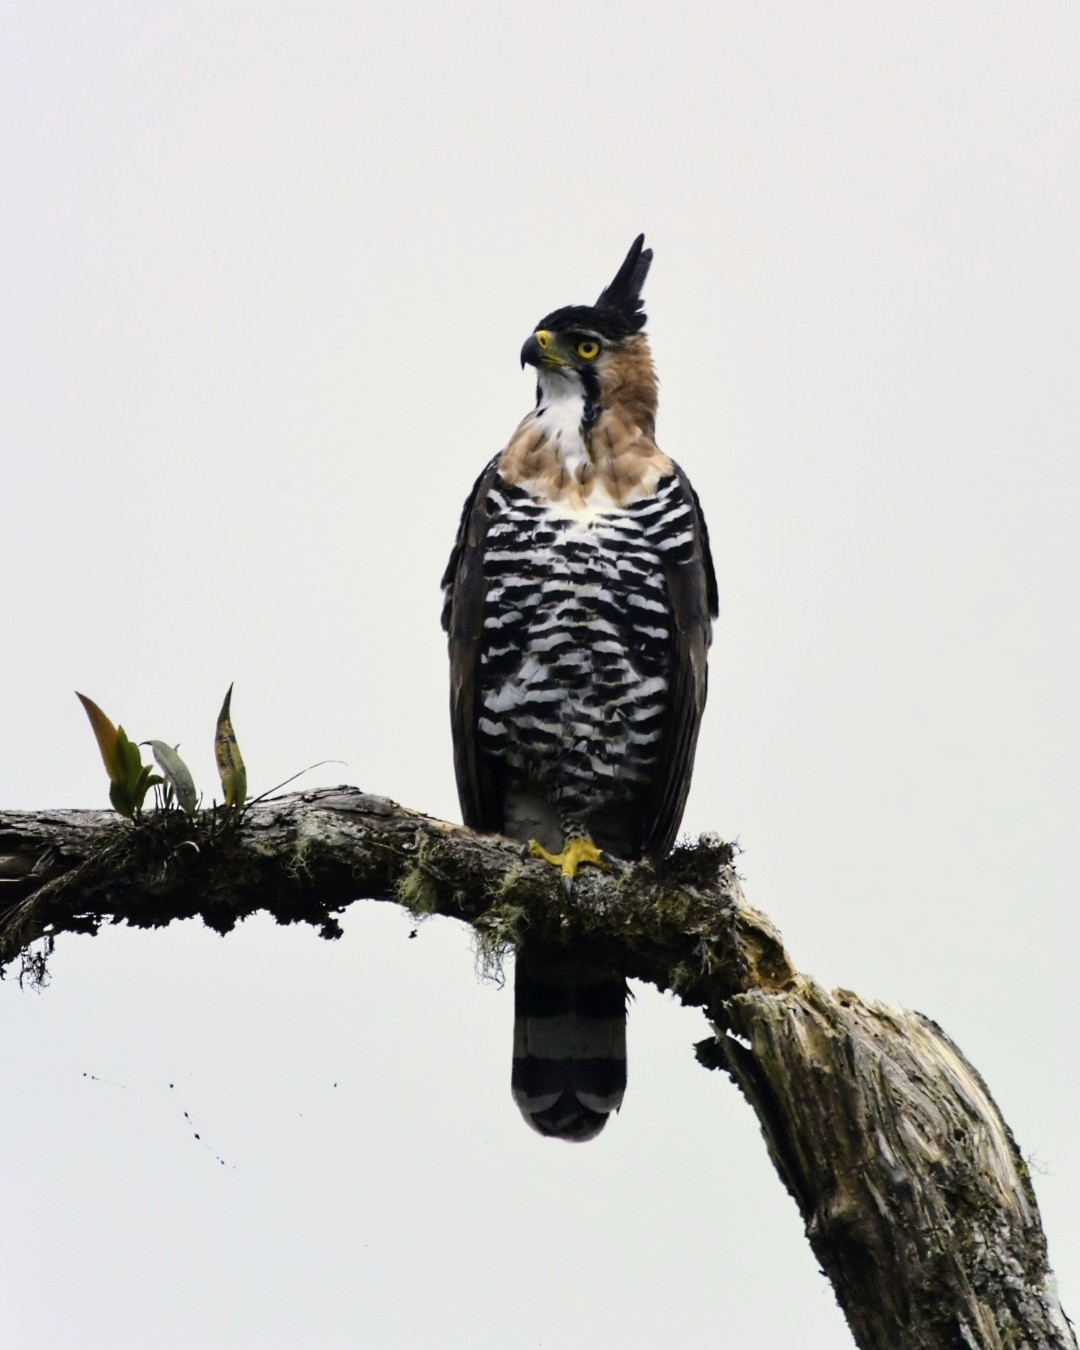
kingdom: Animalia
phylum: Chordata
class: Aves
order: Accipitriformes
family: Accipitridae
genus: Spizaetus
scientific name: Spizaetus ornatus
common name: Ornate hawk-eagle
